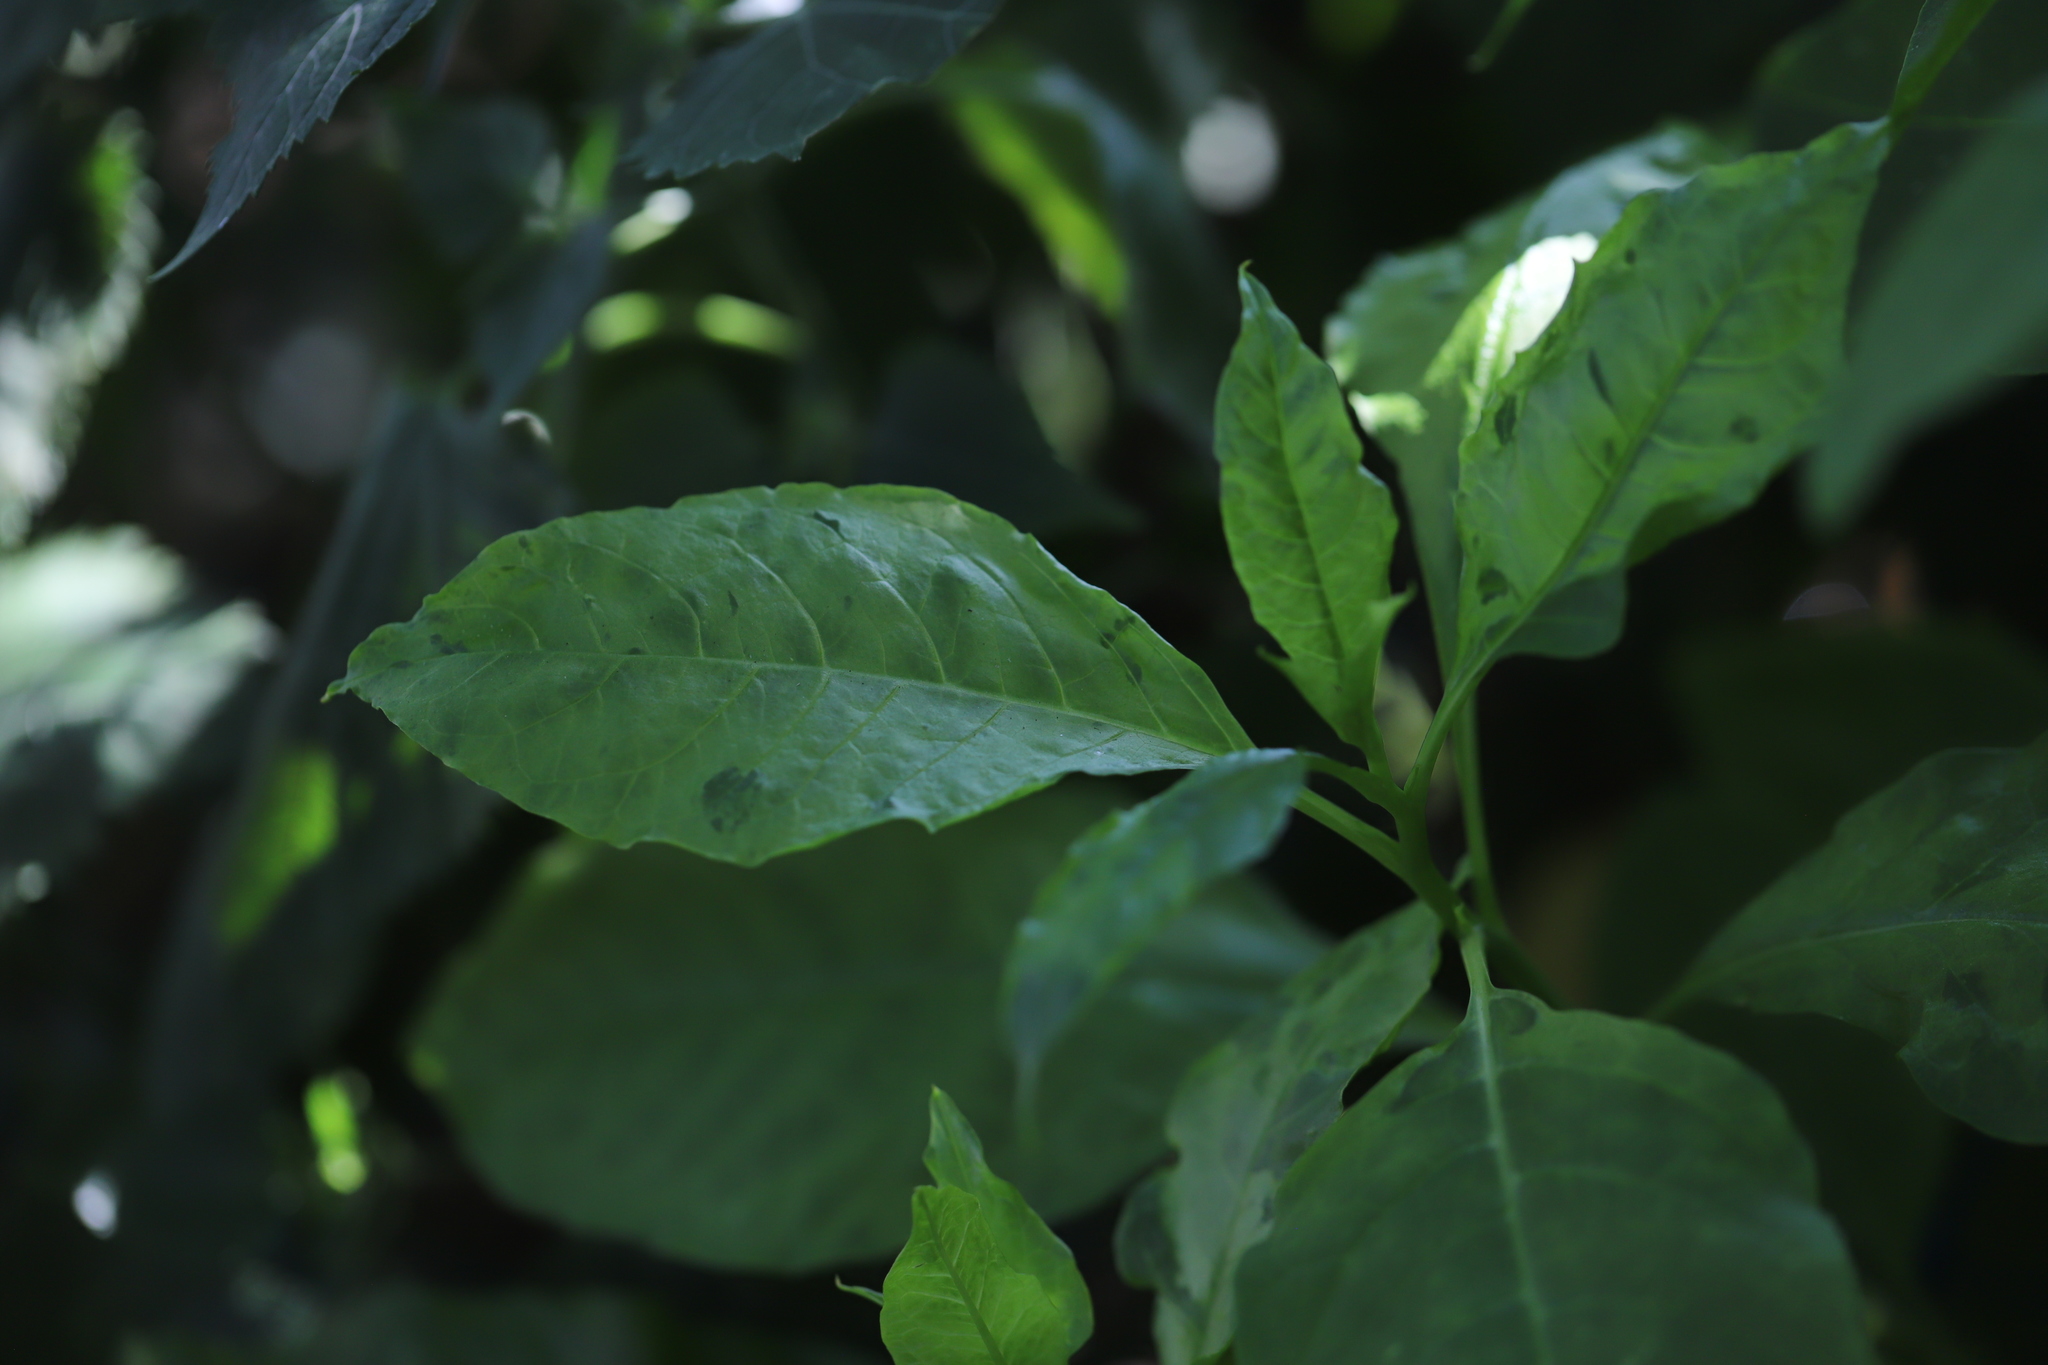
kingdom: Plantae
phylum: Tracheophyta
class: Magnoliopsida
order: Caryophyllales
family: Phytolaccaceae
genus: Phytolacca
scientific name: Phytolacca americana
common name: American pokeweed
